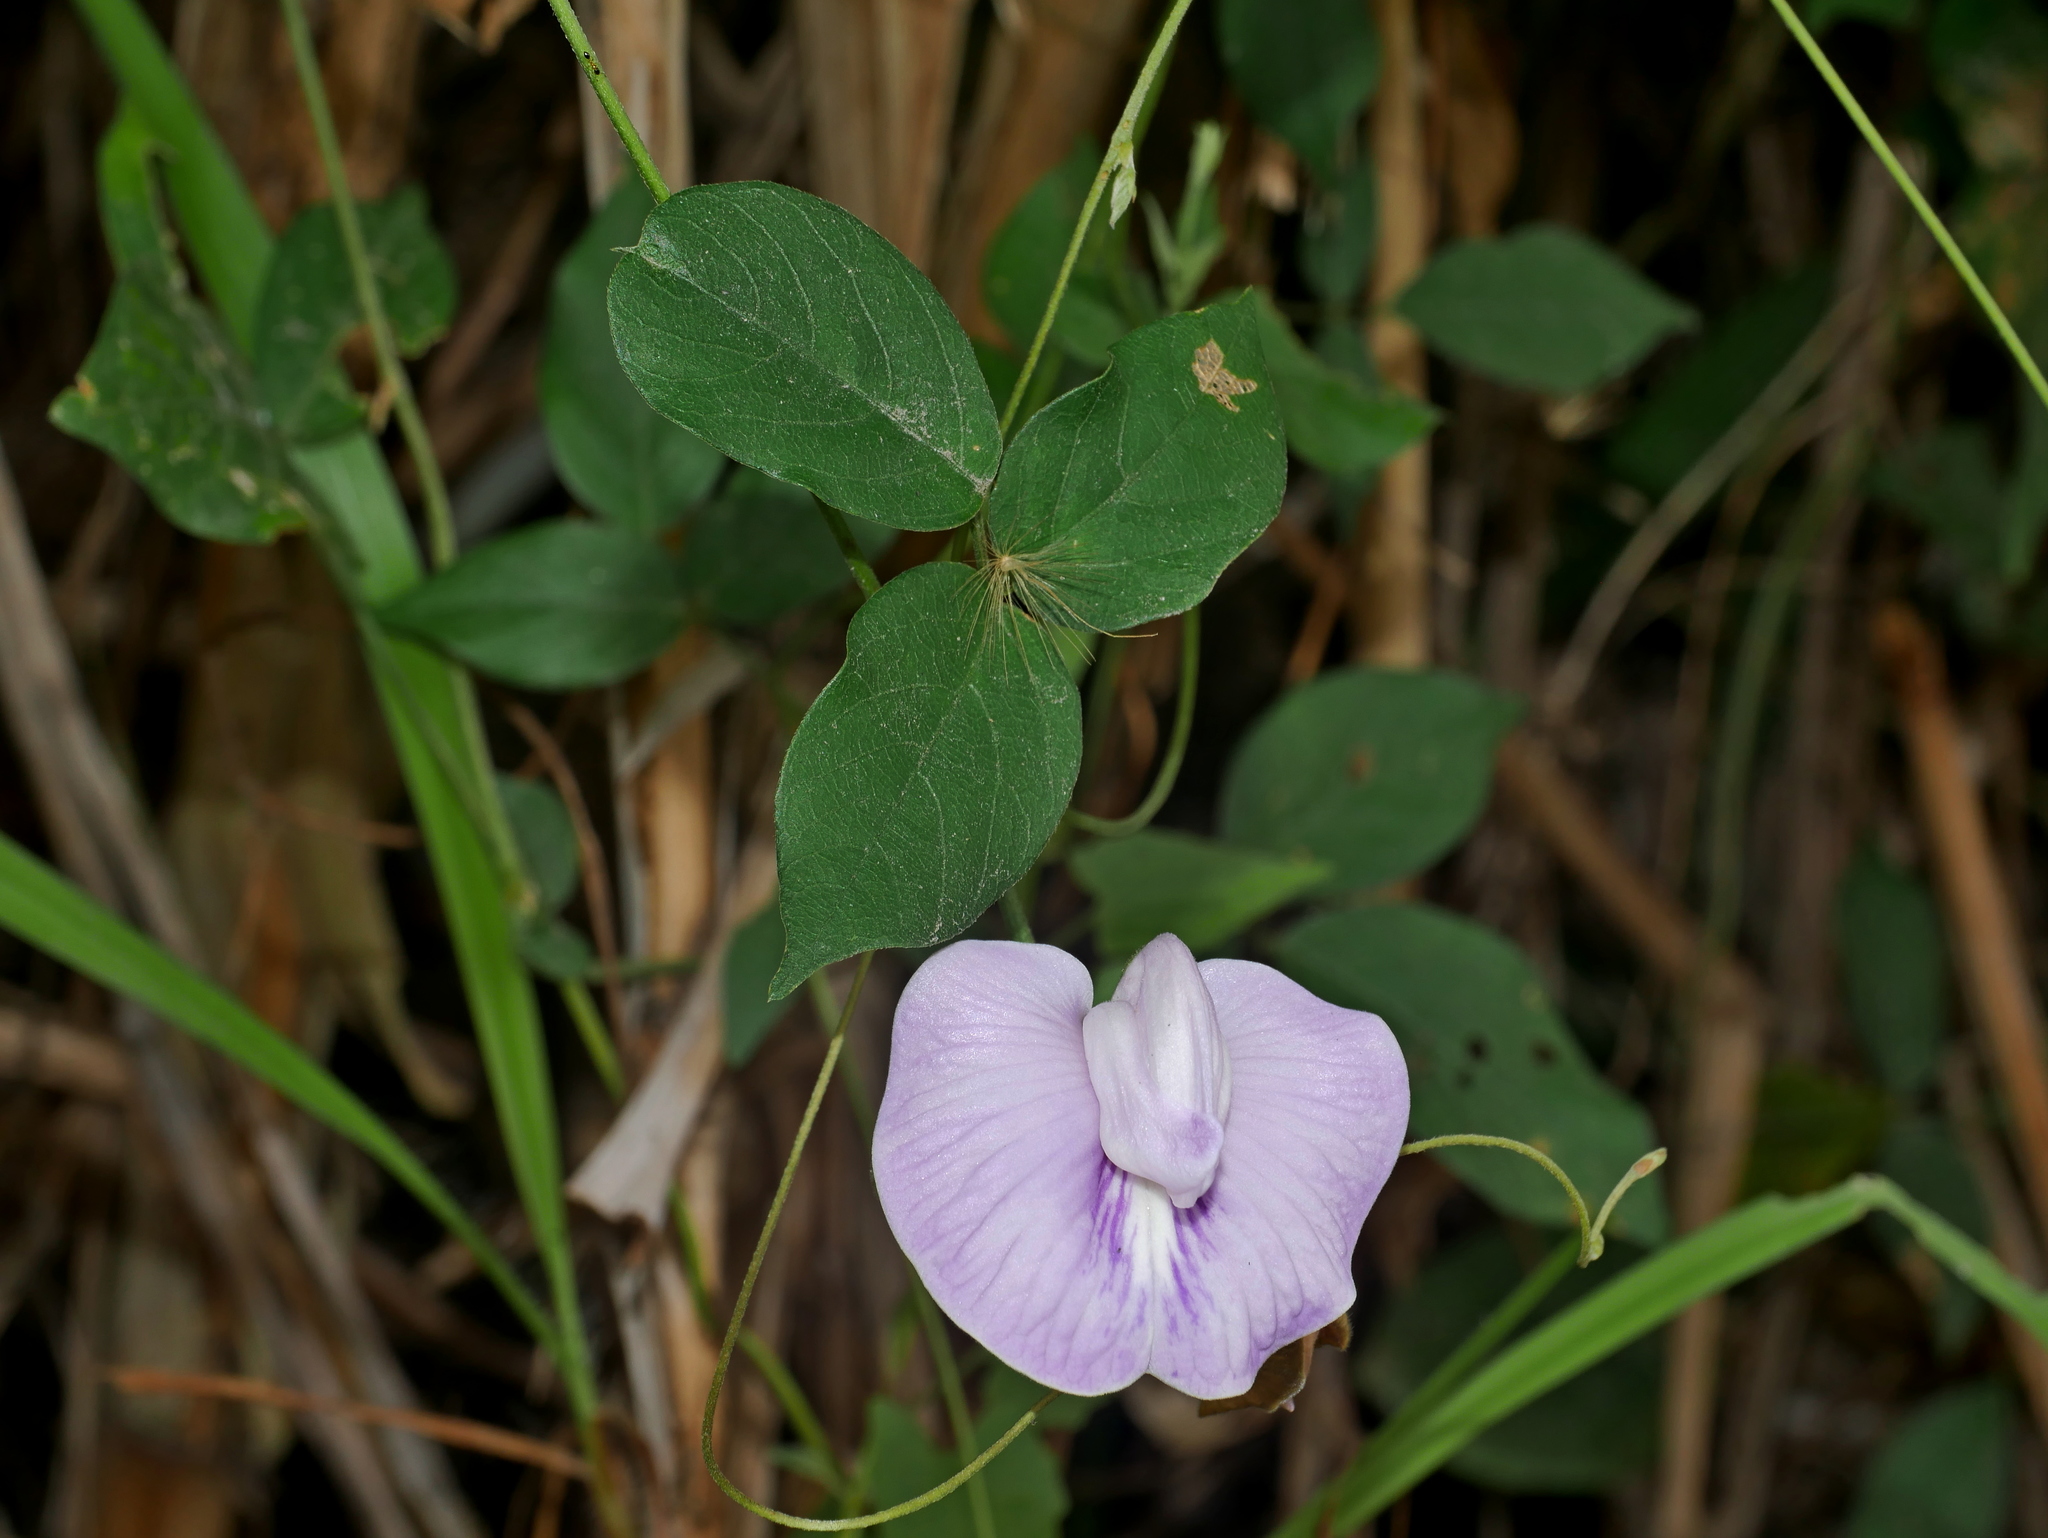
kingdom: Plantae
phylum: Tracheophyta
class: Magnoliopsida
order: Fabales
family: Fabaceae
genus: Centrosema
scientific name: Centrosema pubescens
